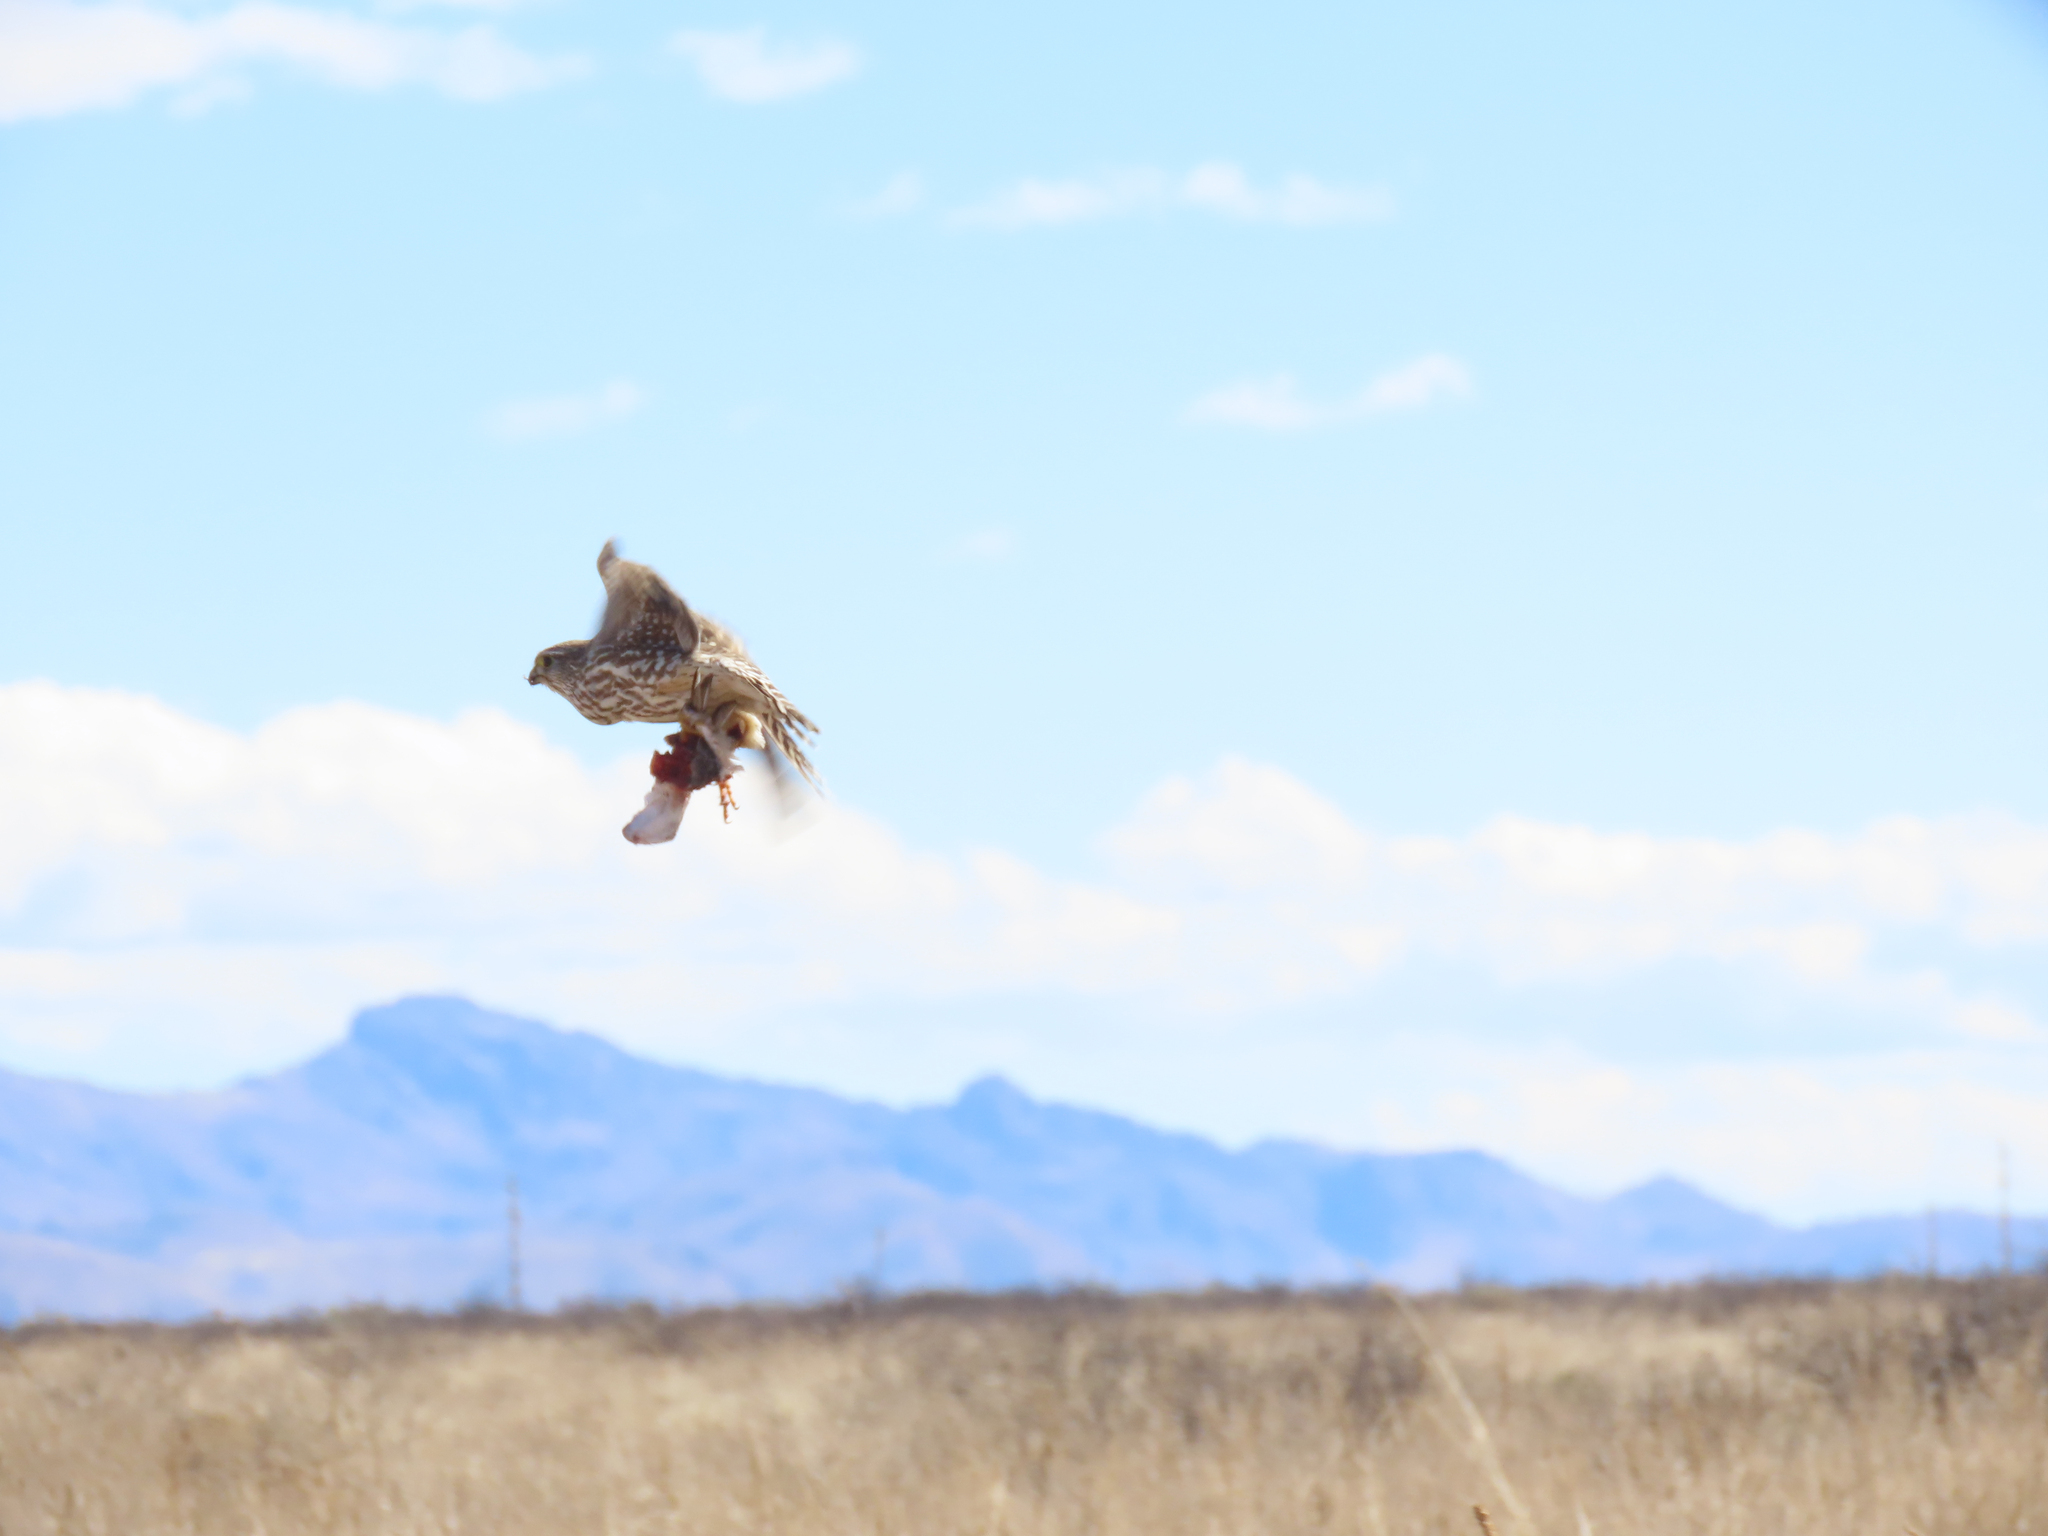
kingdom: Animalia
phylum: Chordata
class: Aves
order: Falconiformes
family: Falconidae
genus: Falco
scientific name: Falco columbarius
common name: Merlin
